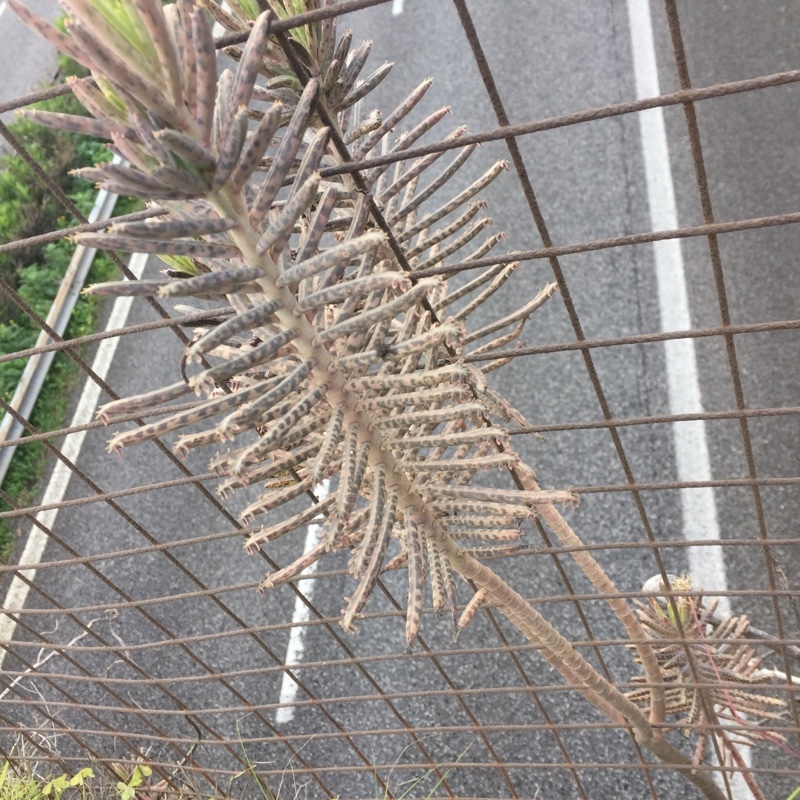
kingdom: Plantae
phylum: Tracheophyta
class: Magnoliopsida
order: Saxifragales
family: Crassulaceae
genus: Kalanchoe
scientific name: Kalanchoe delagoensis
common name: Chandelier plant
